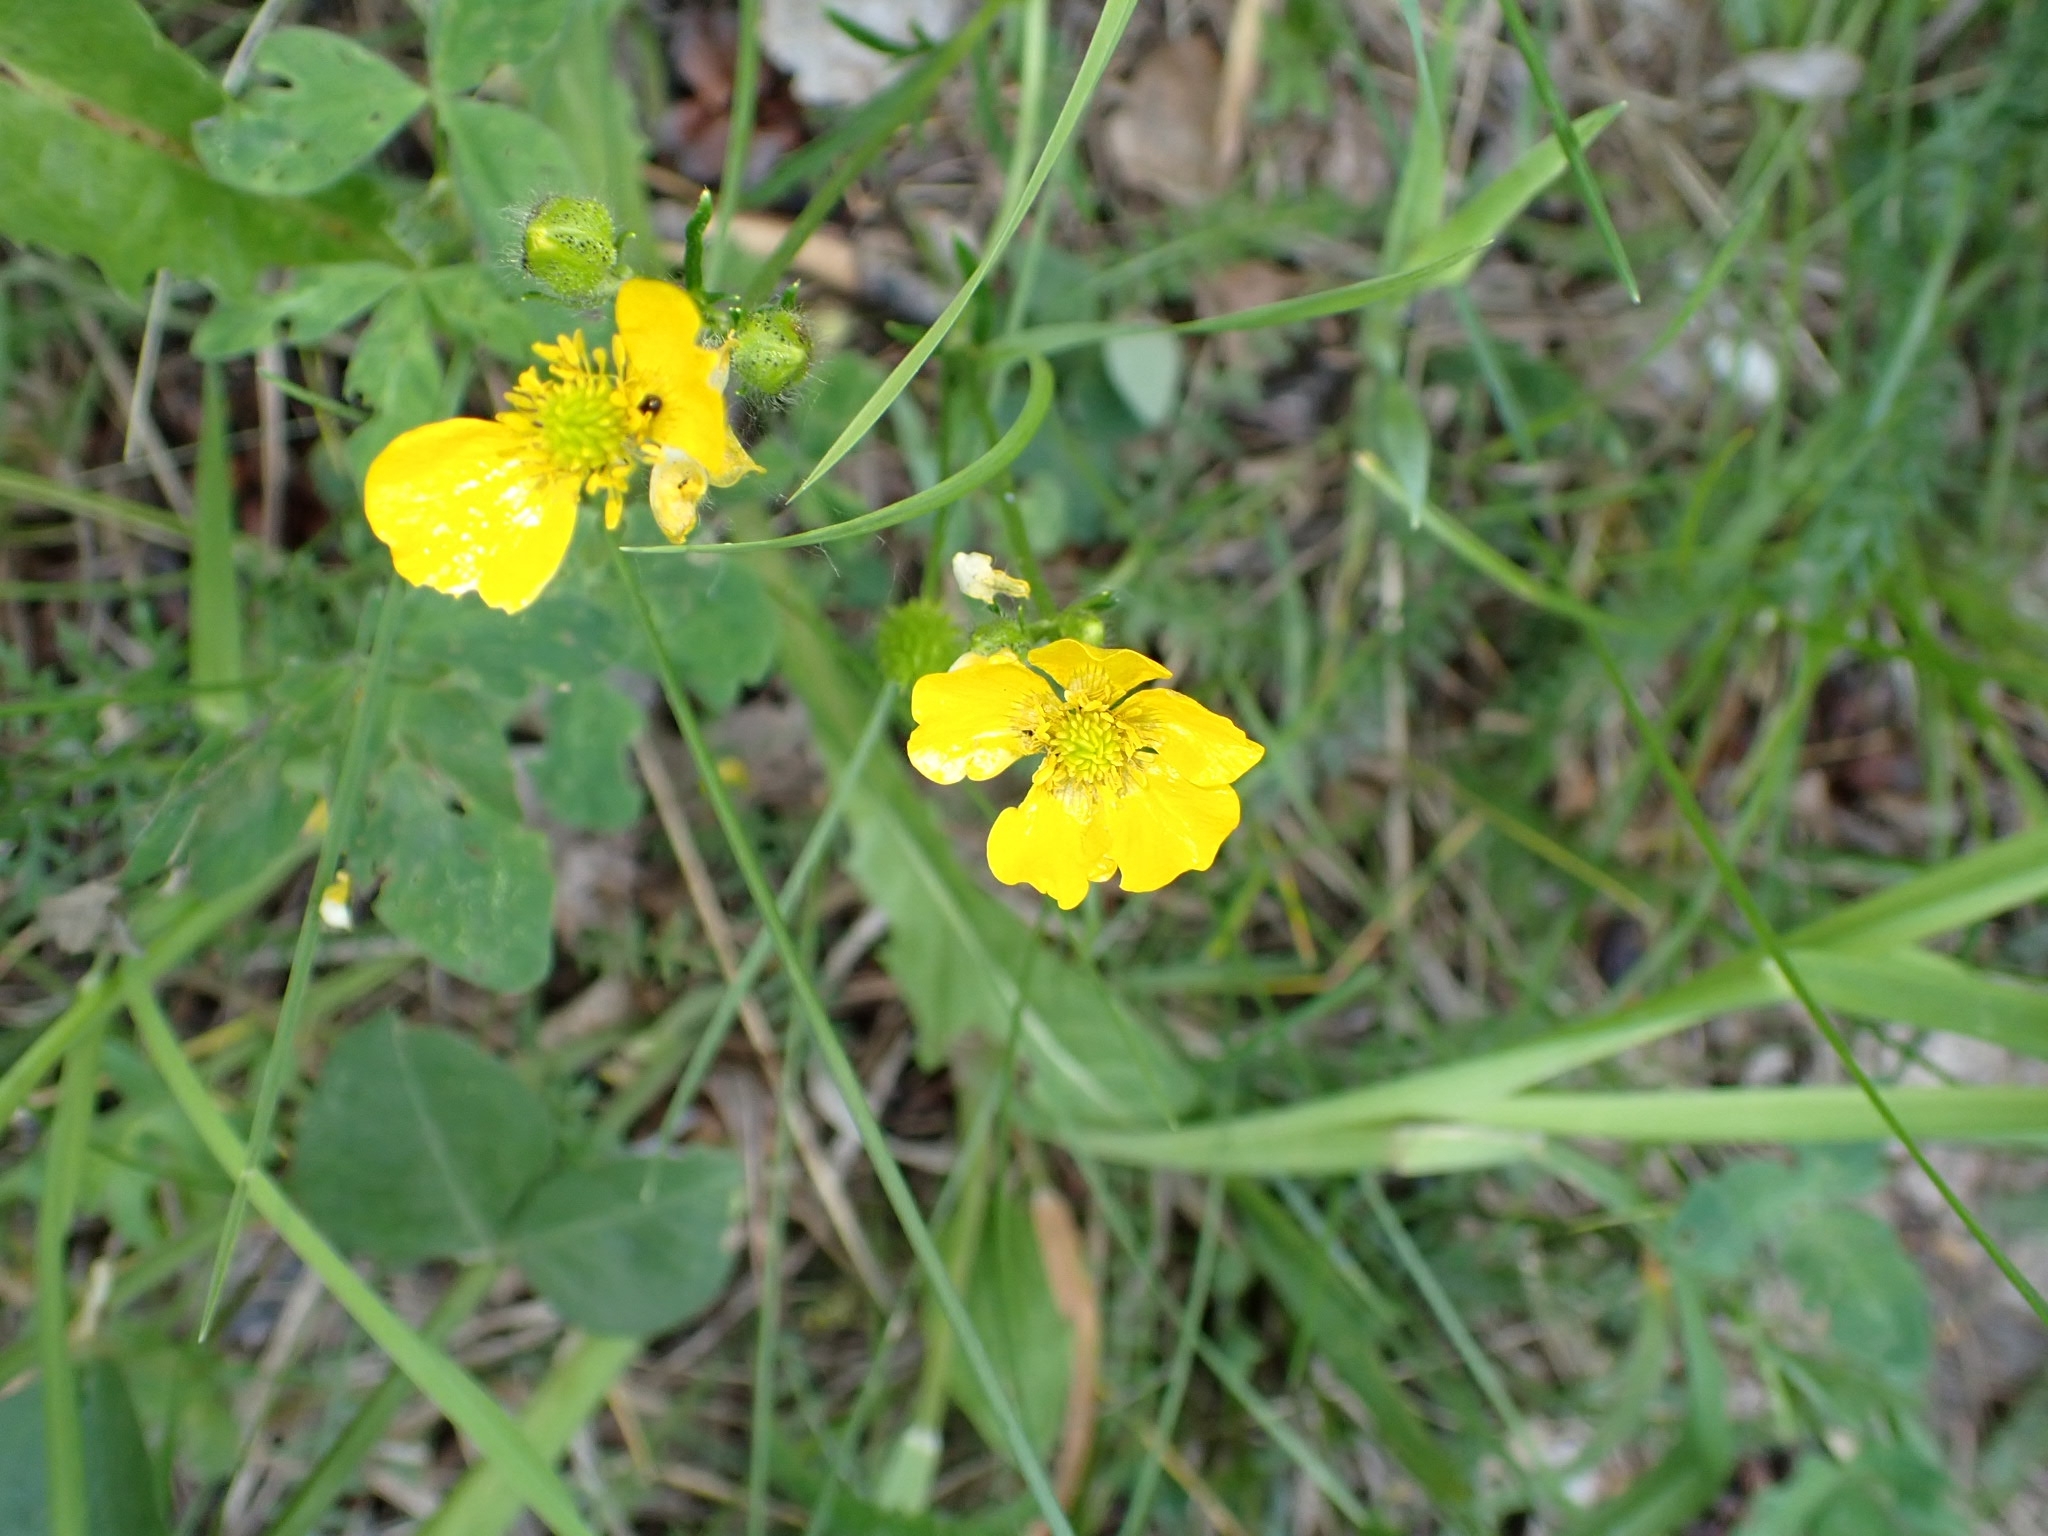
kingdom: Plantae
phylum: Tracheophyta
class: Magnoliopsida
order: Ranunculales
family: Ranunculaceae
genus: Ranunculus
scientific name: Ranunculus polyanthemos
